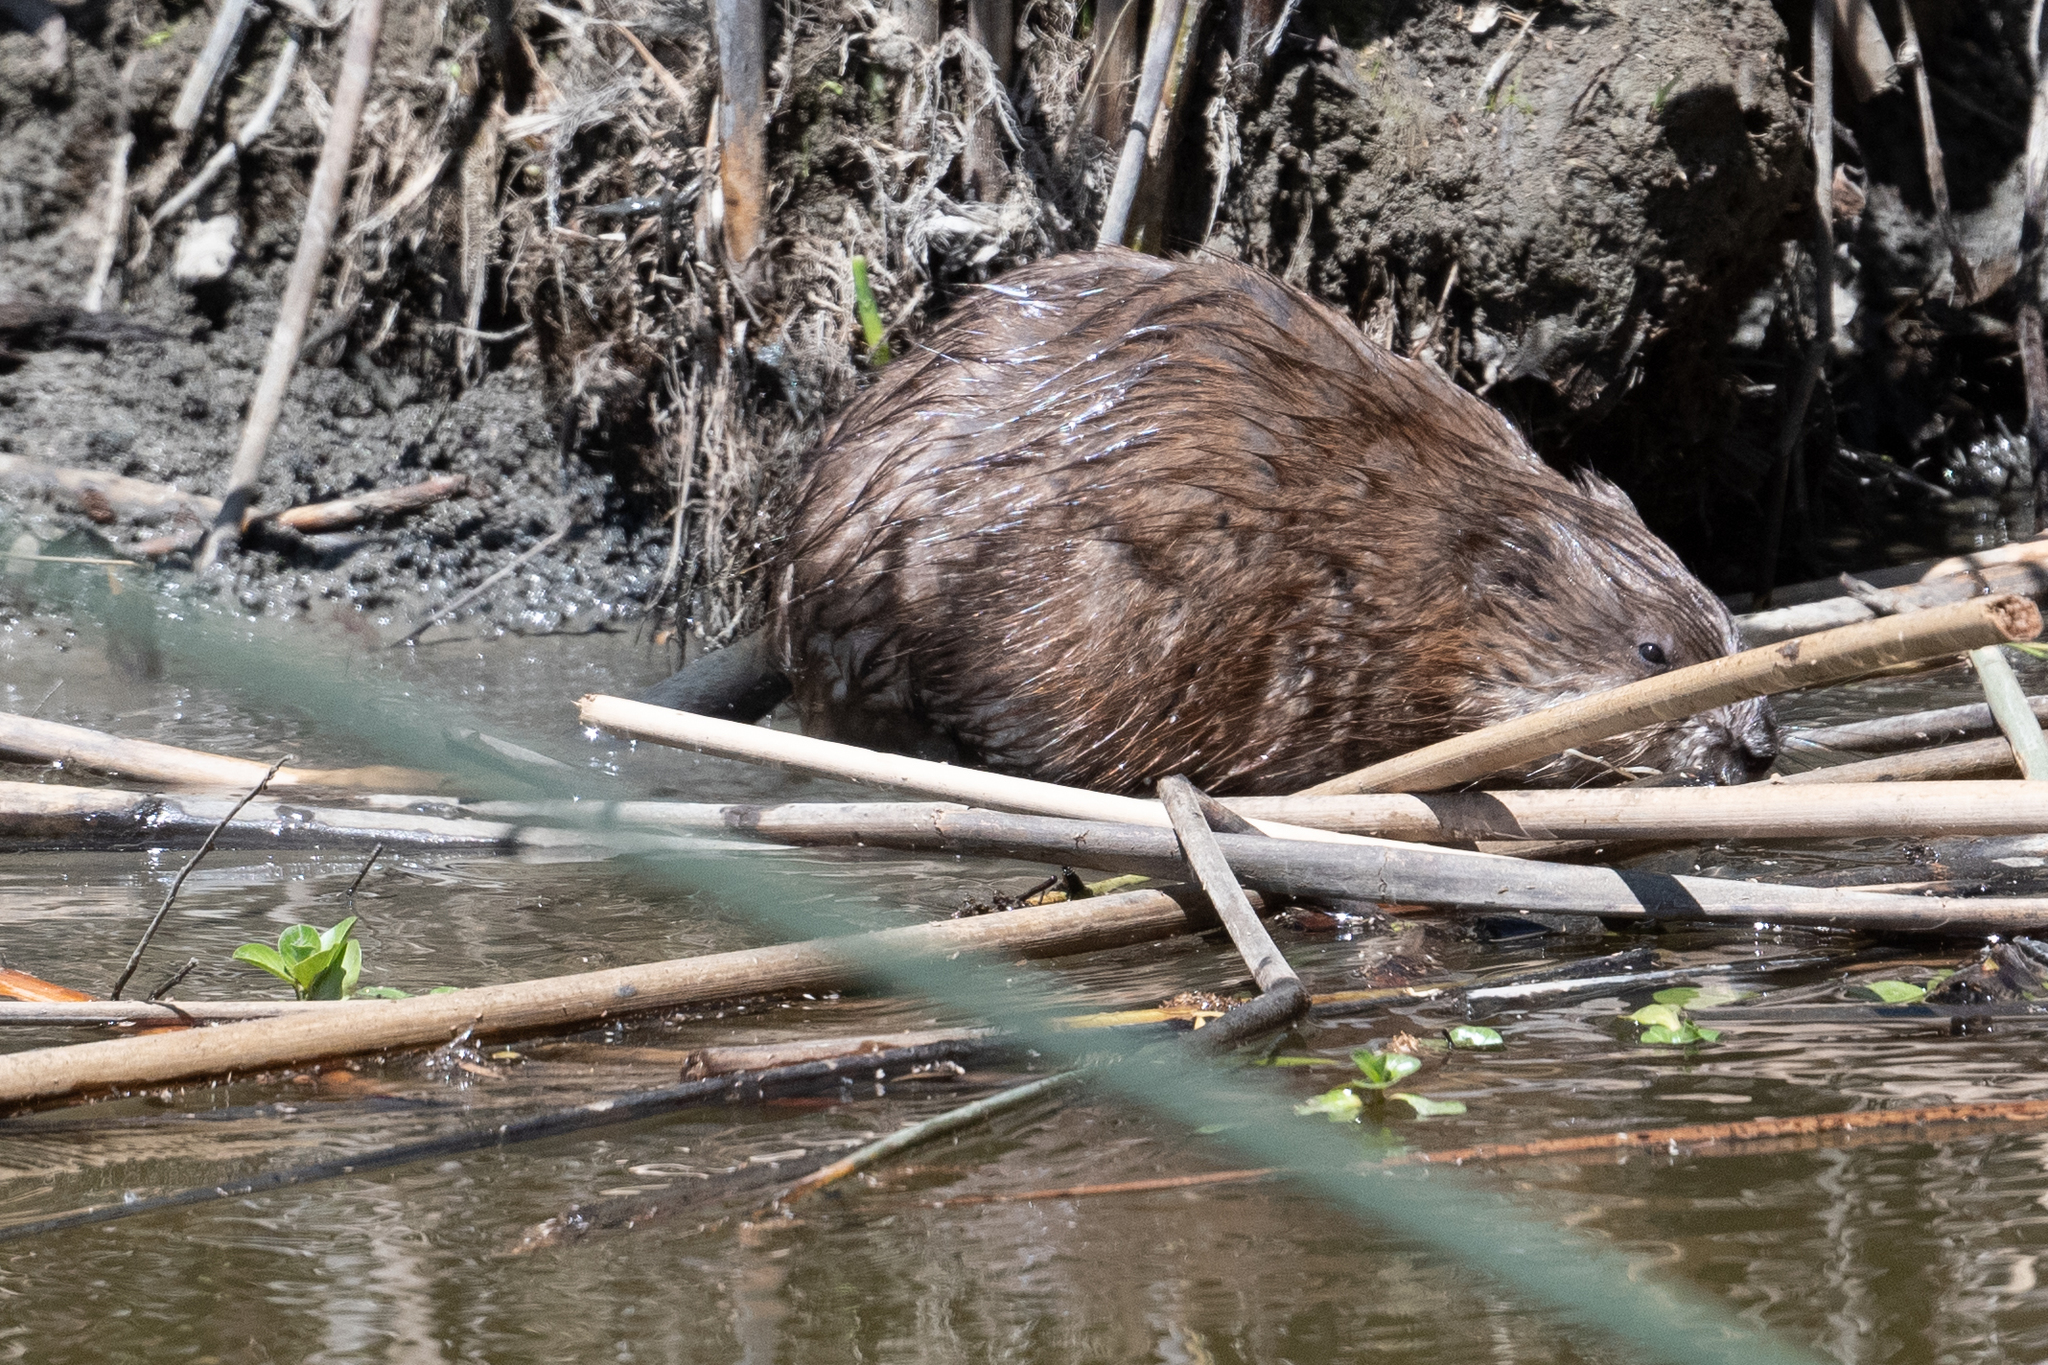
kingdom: Animalia
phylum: Chordata
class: Mammalia
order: Rodentia
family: Cricetidae
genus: Ondatra
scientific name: Ondatra zibethicus
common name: Muskrat
